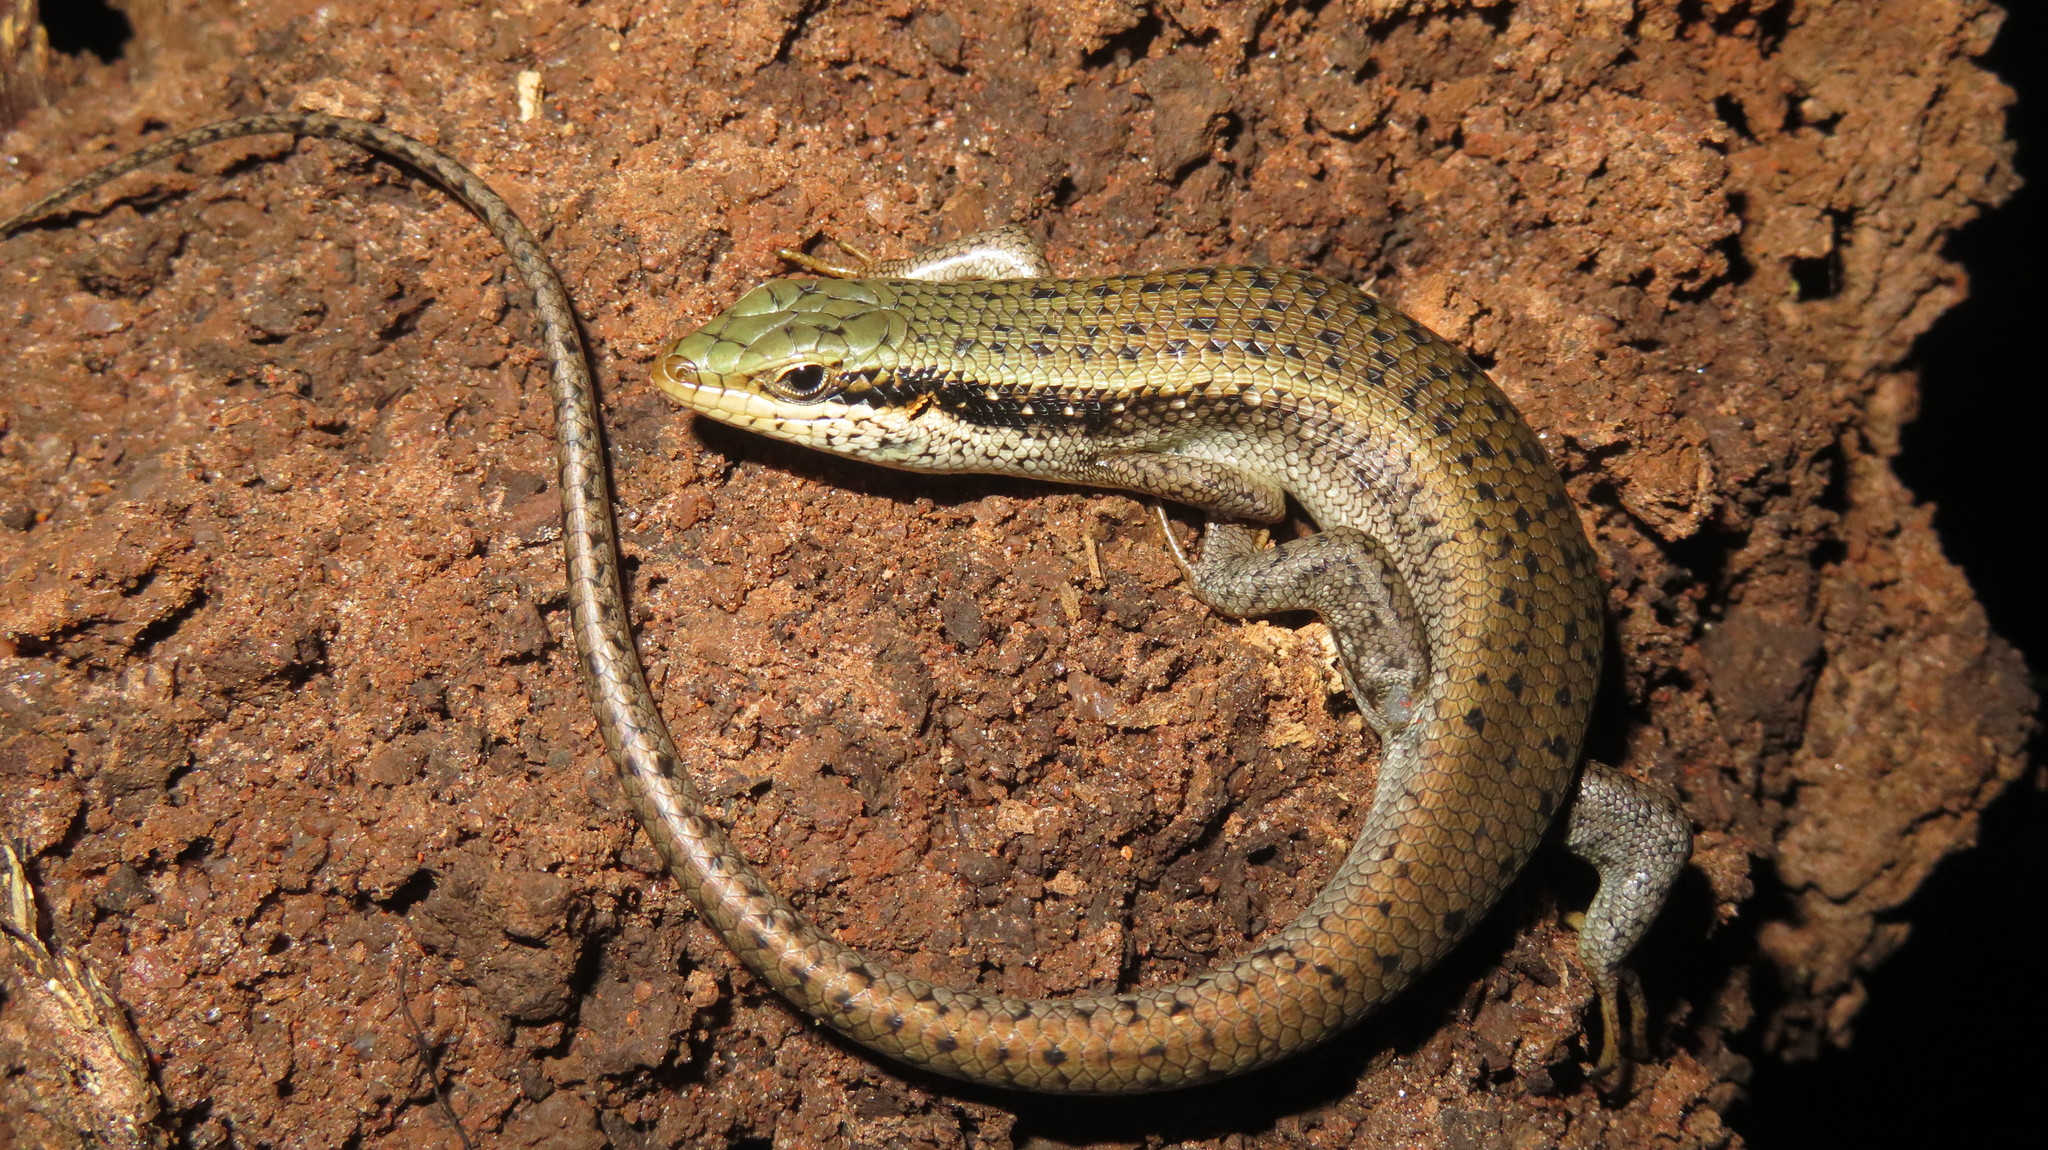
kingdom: Animalia
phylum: Chordata
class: Squamata
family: Scincidae
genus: Trachylepis
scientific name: Trachylepis planifrons
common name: Tree skink
